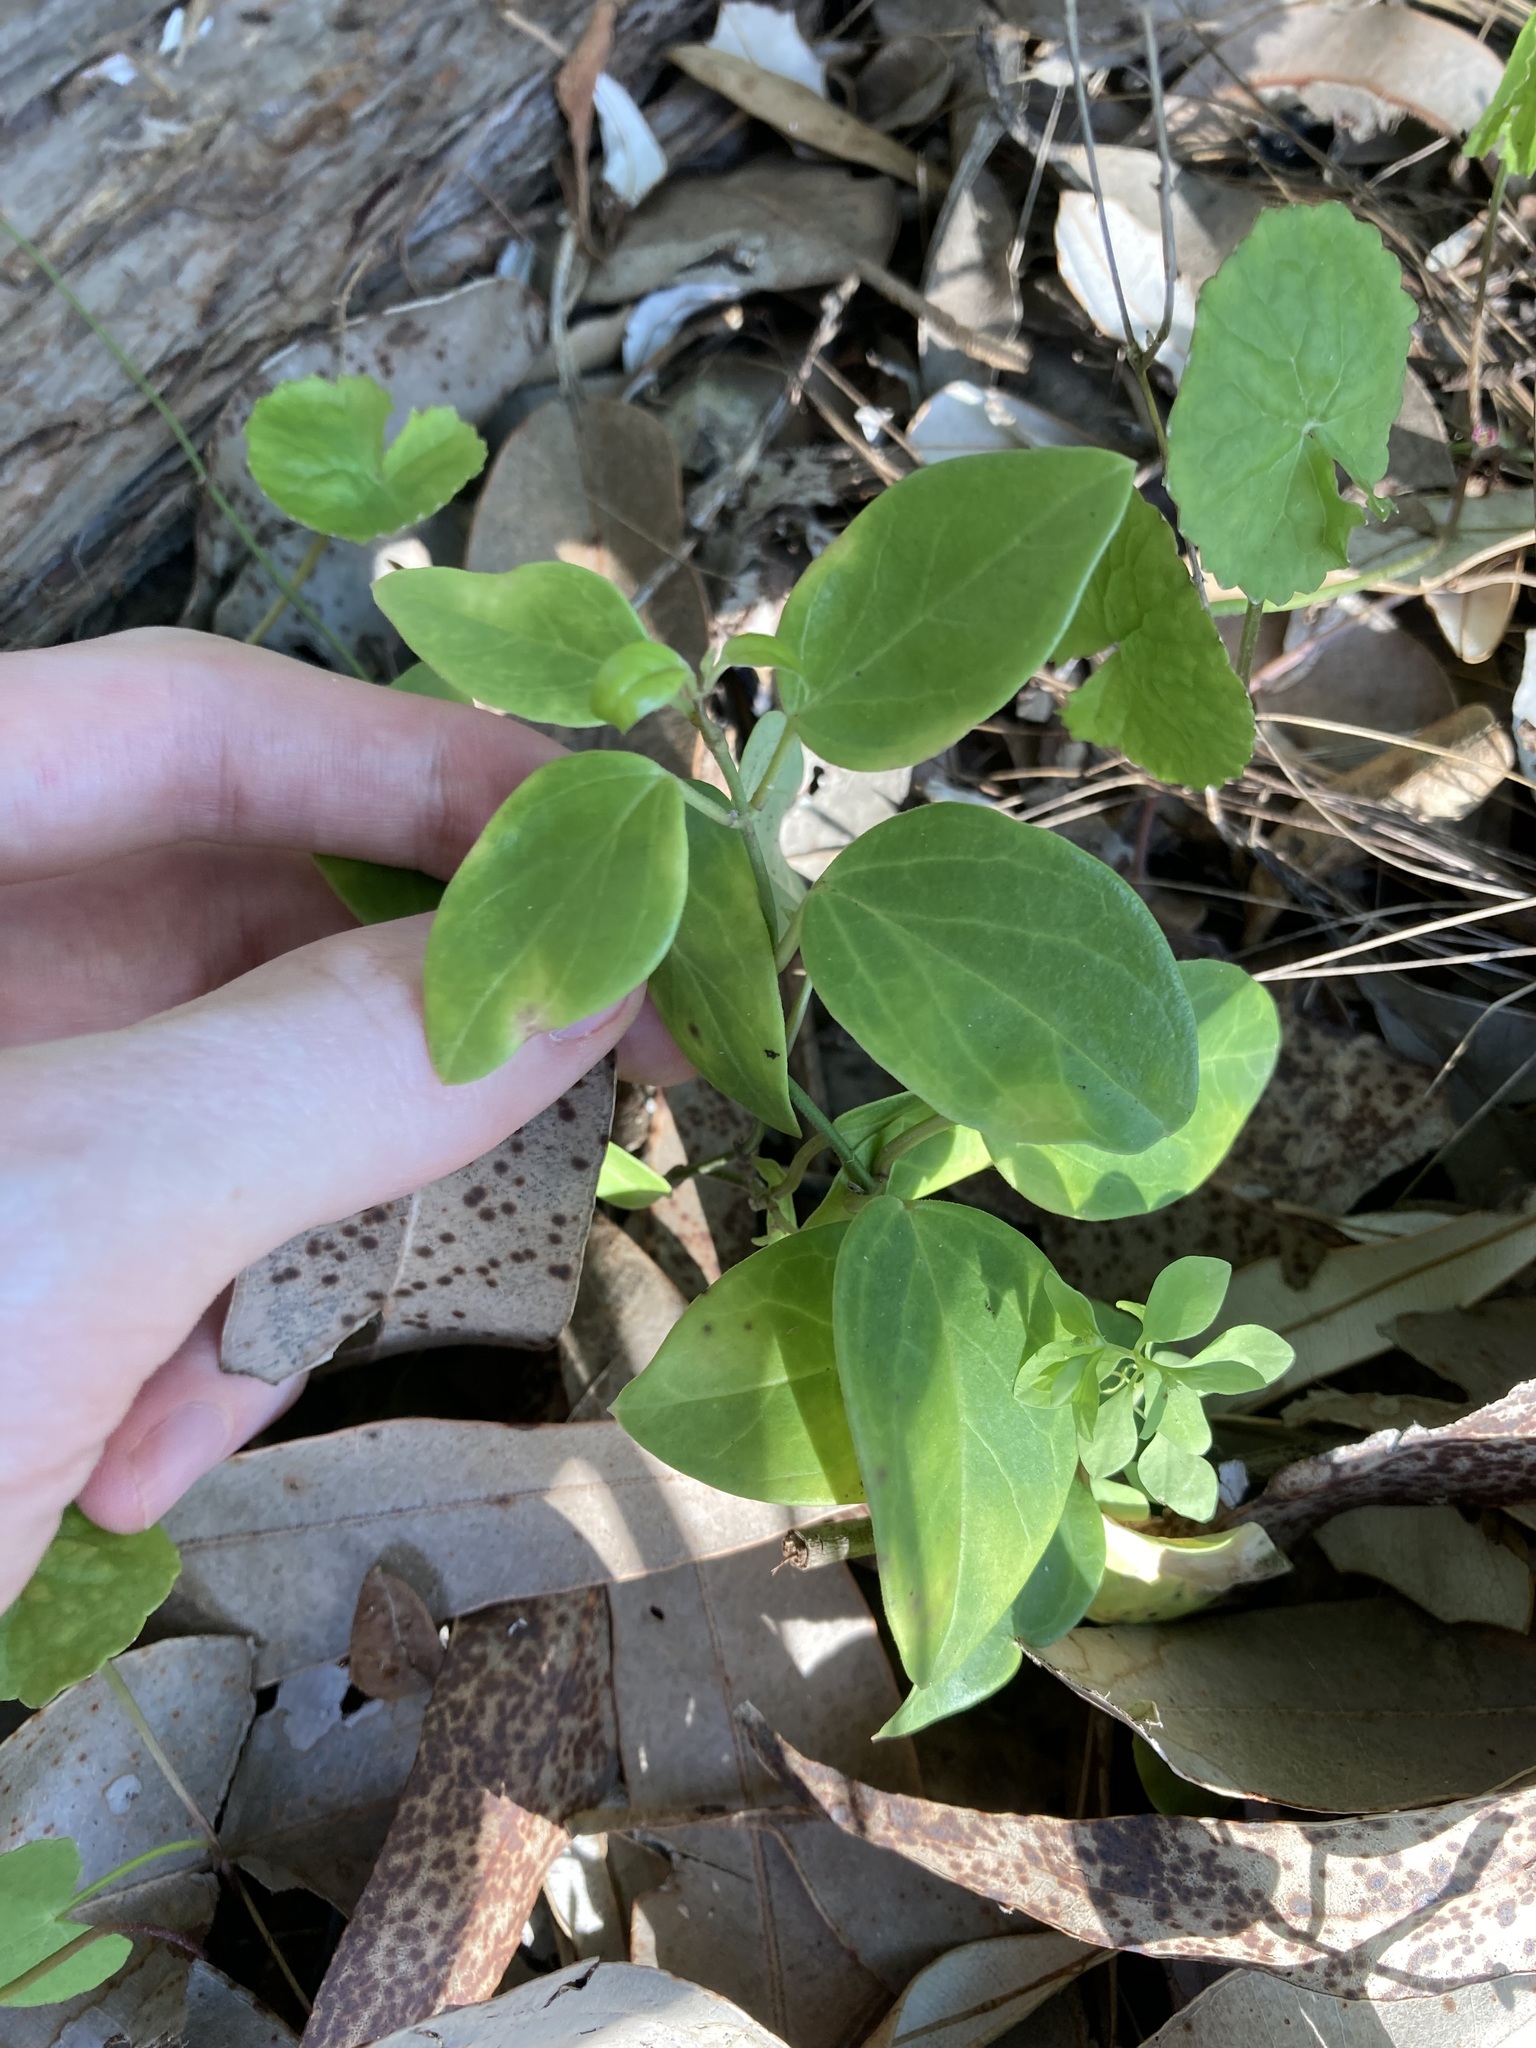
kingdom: Plantae
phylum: Tracheophyta
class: Magnoliopsida
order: Gentianales
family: Apocynaceae
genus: Vincetoxicum
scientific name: Vincetoxicum barbatum
